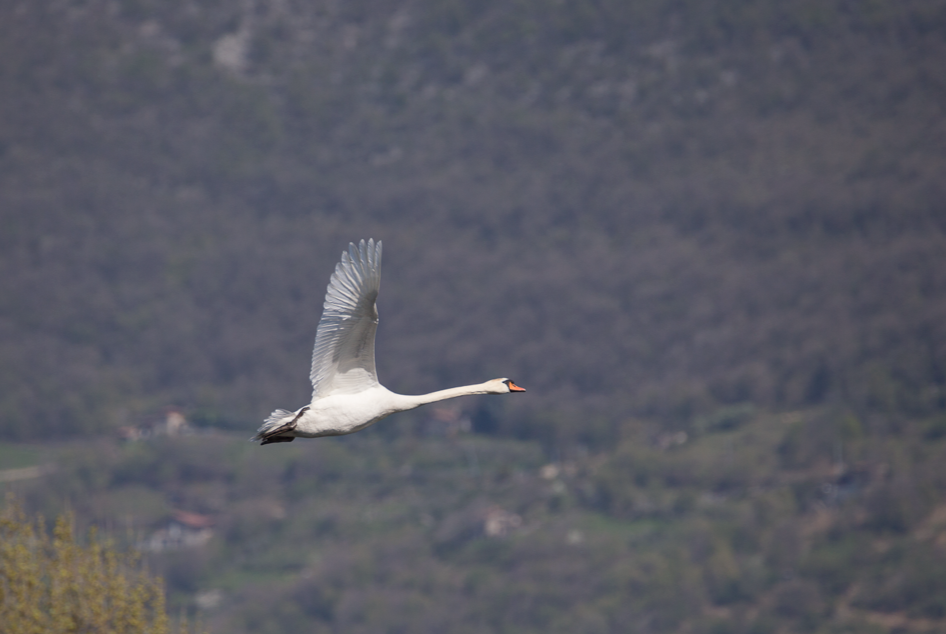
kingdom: Animalia
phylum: Chordata
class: Aves
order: Anseriformes
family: Anatidae
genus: Cygnus
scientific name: Cygnus olor
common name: Mute swan
